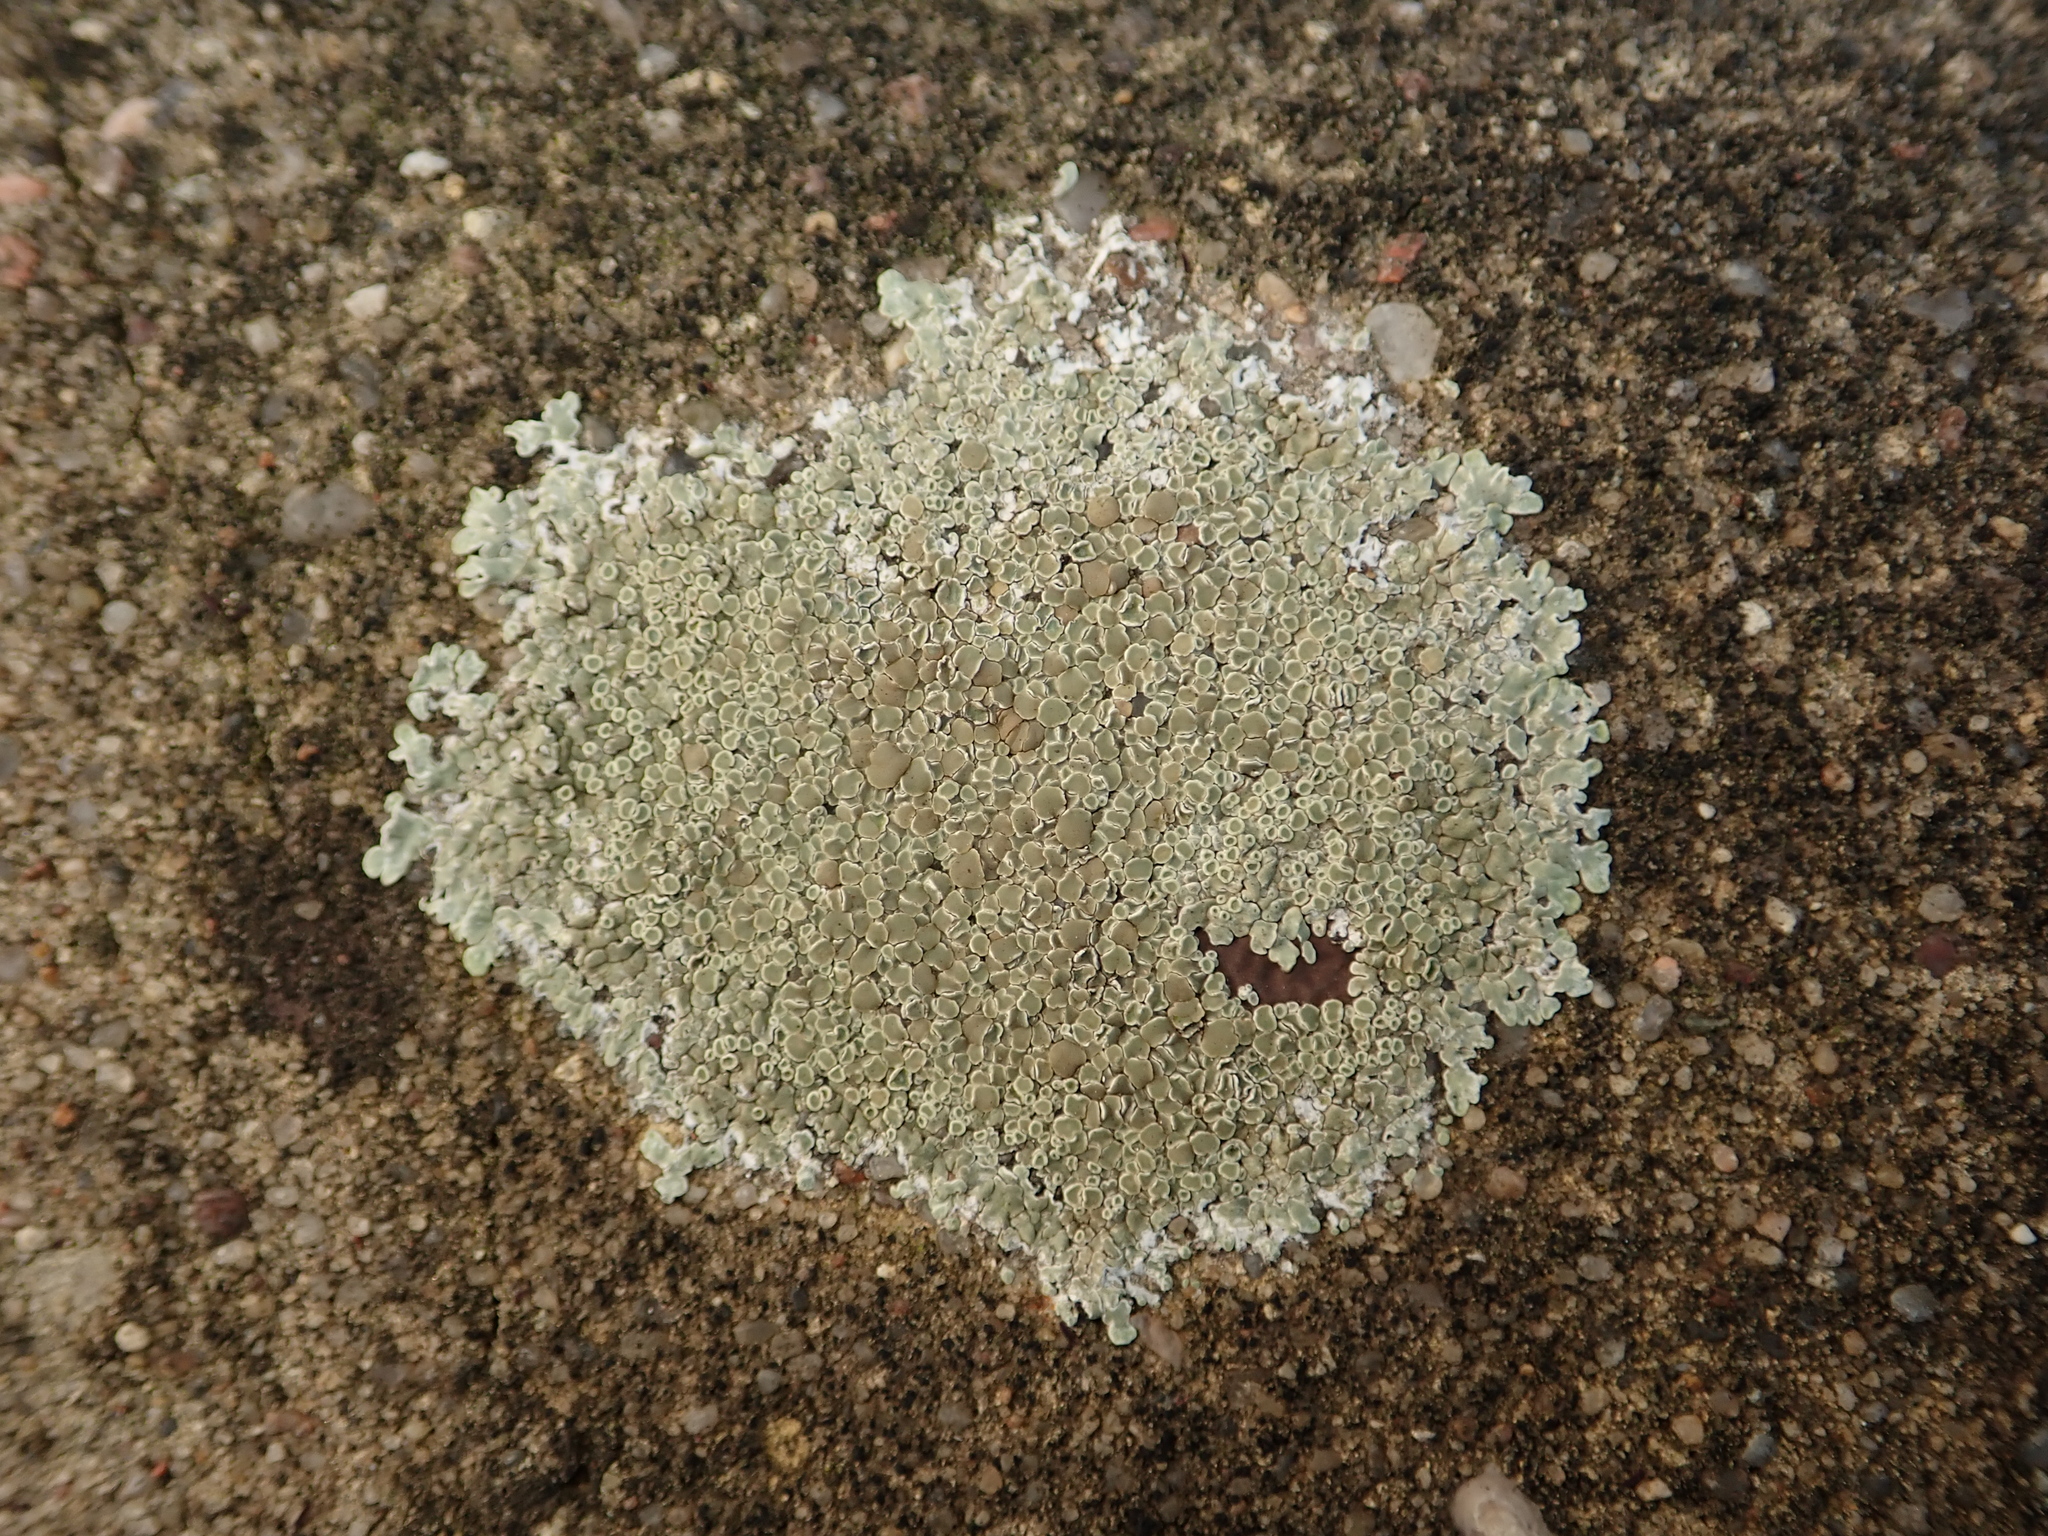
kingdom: Fungi
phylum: Ascomycota
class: Lecanoromycetes
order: Lecanorales
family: Lecanoraceae
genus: Protoparmeliopsis
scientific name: Protoparmeliopsis muralis
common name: Stonewall rim lichen
